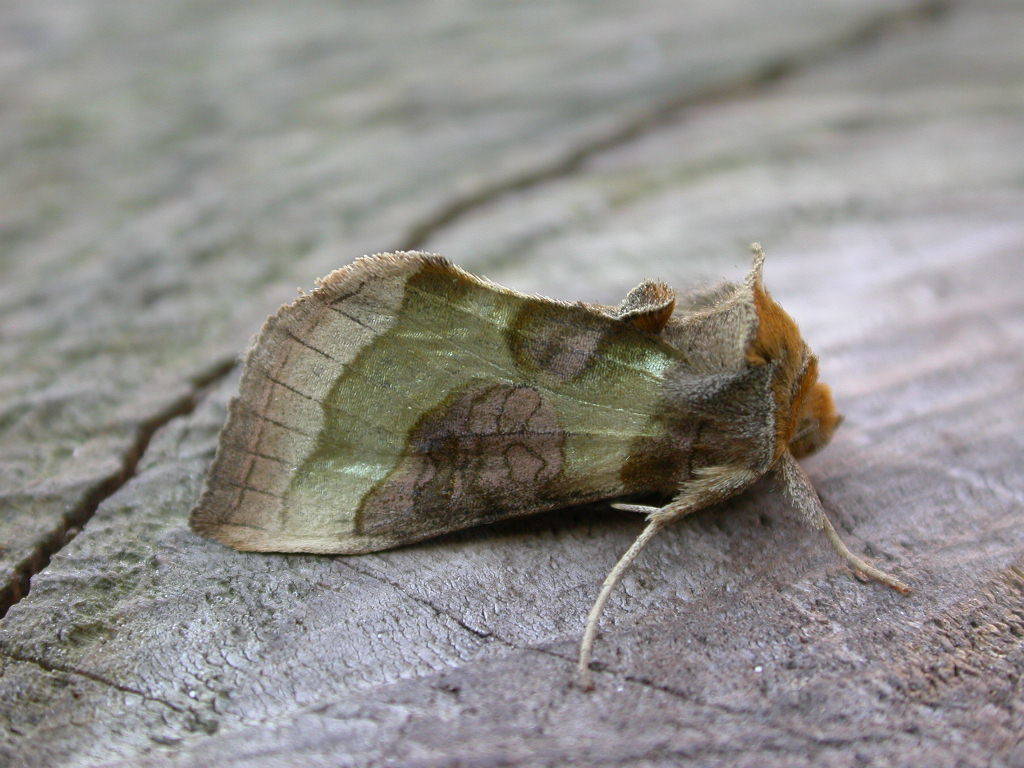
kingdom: Animalia
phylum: Arthropoda
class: Insecta
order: Lepidoptera
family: Noctuidae
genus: Diachrysia
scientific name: Diachrysia chrysitis
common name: Burnished brass
